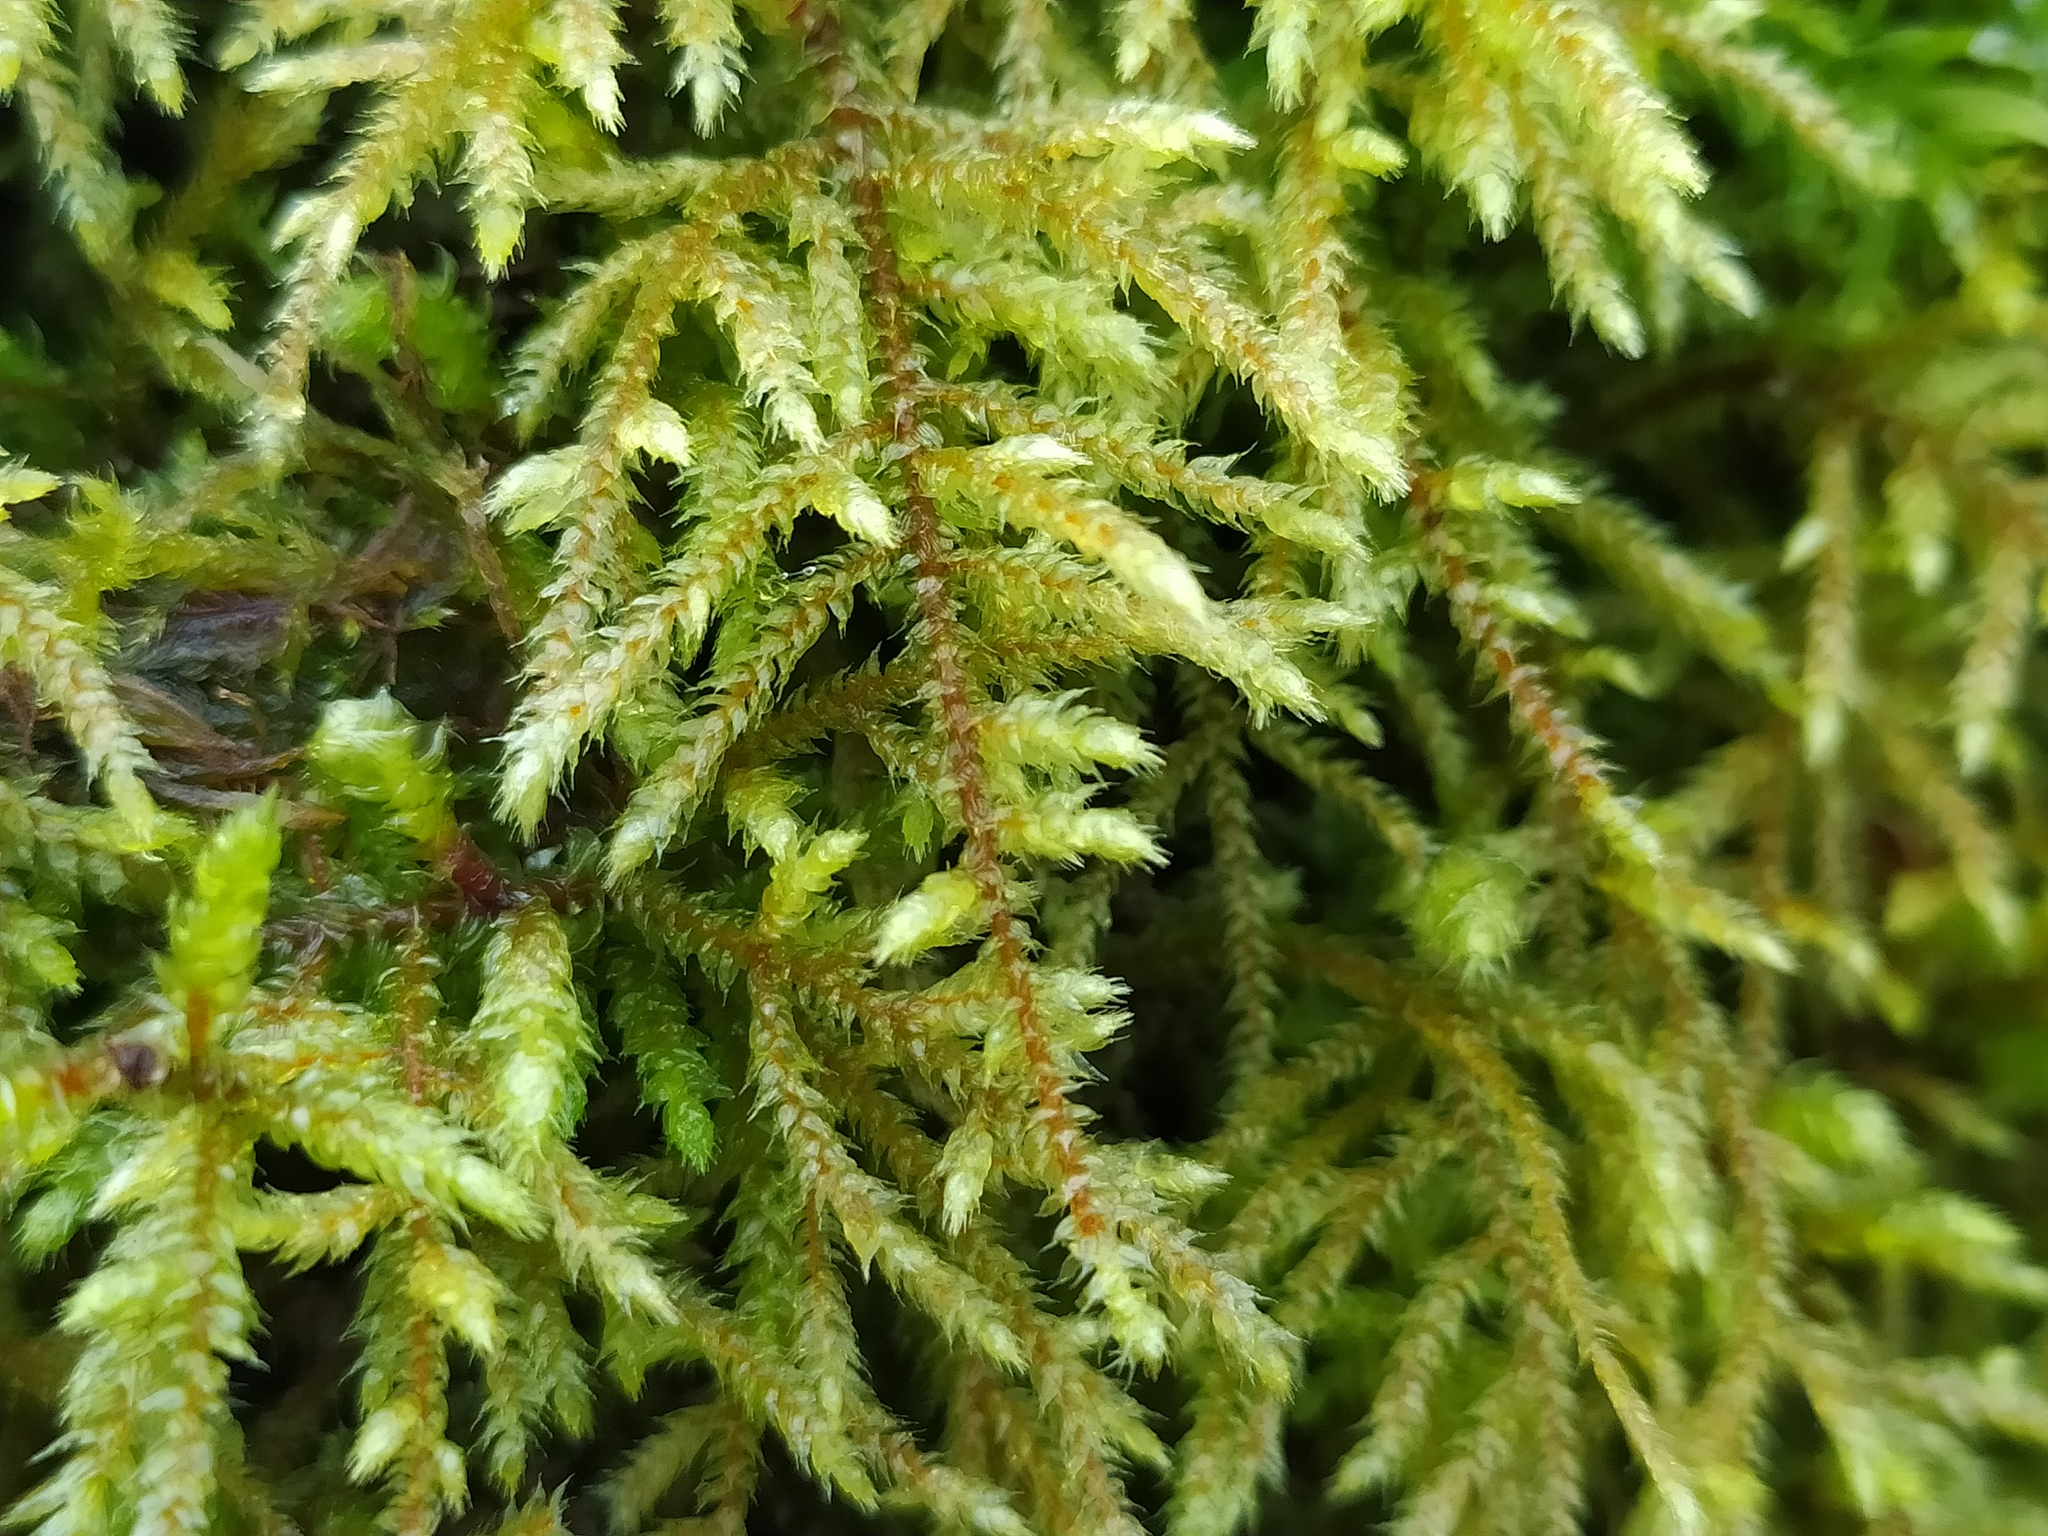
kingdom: Plantae
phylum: Bryophyta
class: Bryopsida
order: Hypnales
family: Hylocomiaceae
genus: Loeskeobryum
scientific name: Loeskeobryum brevirostre
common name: Short-beaked wood-moss
